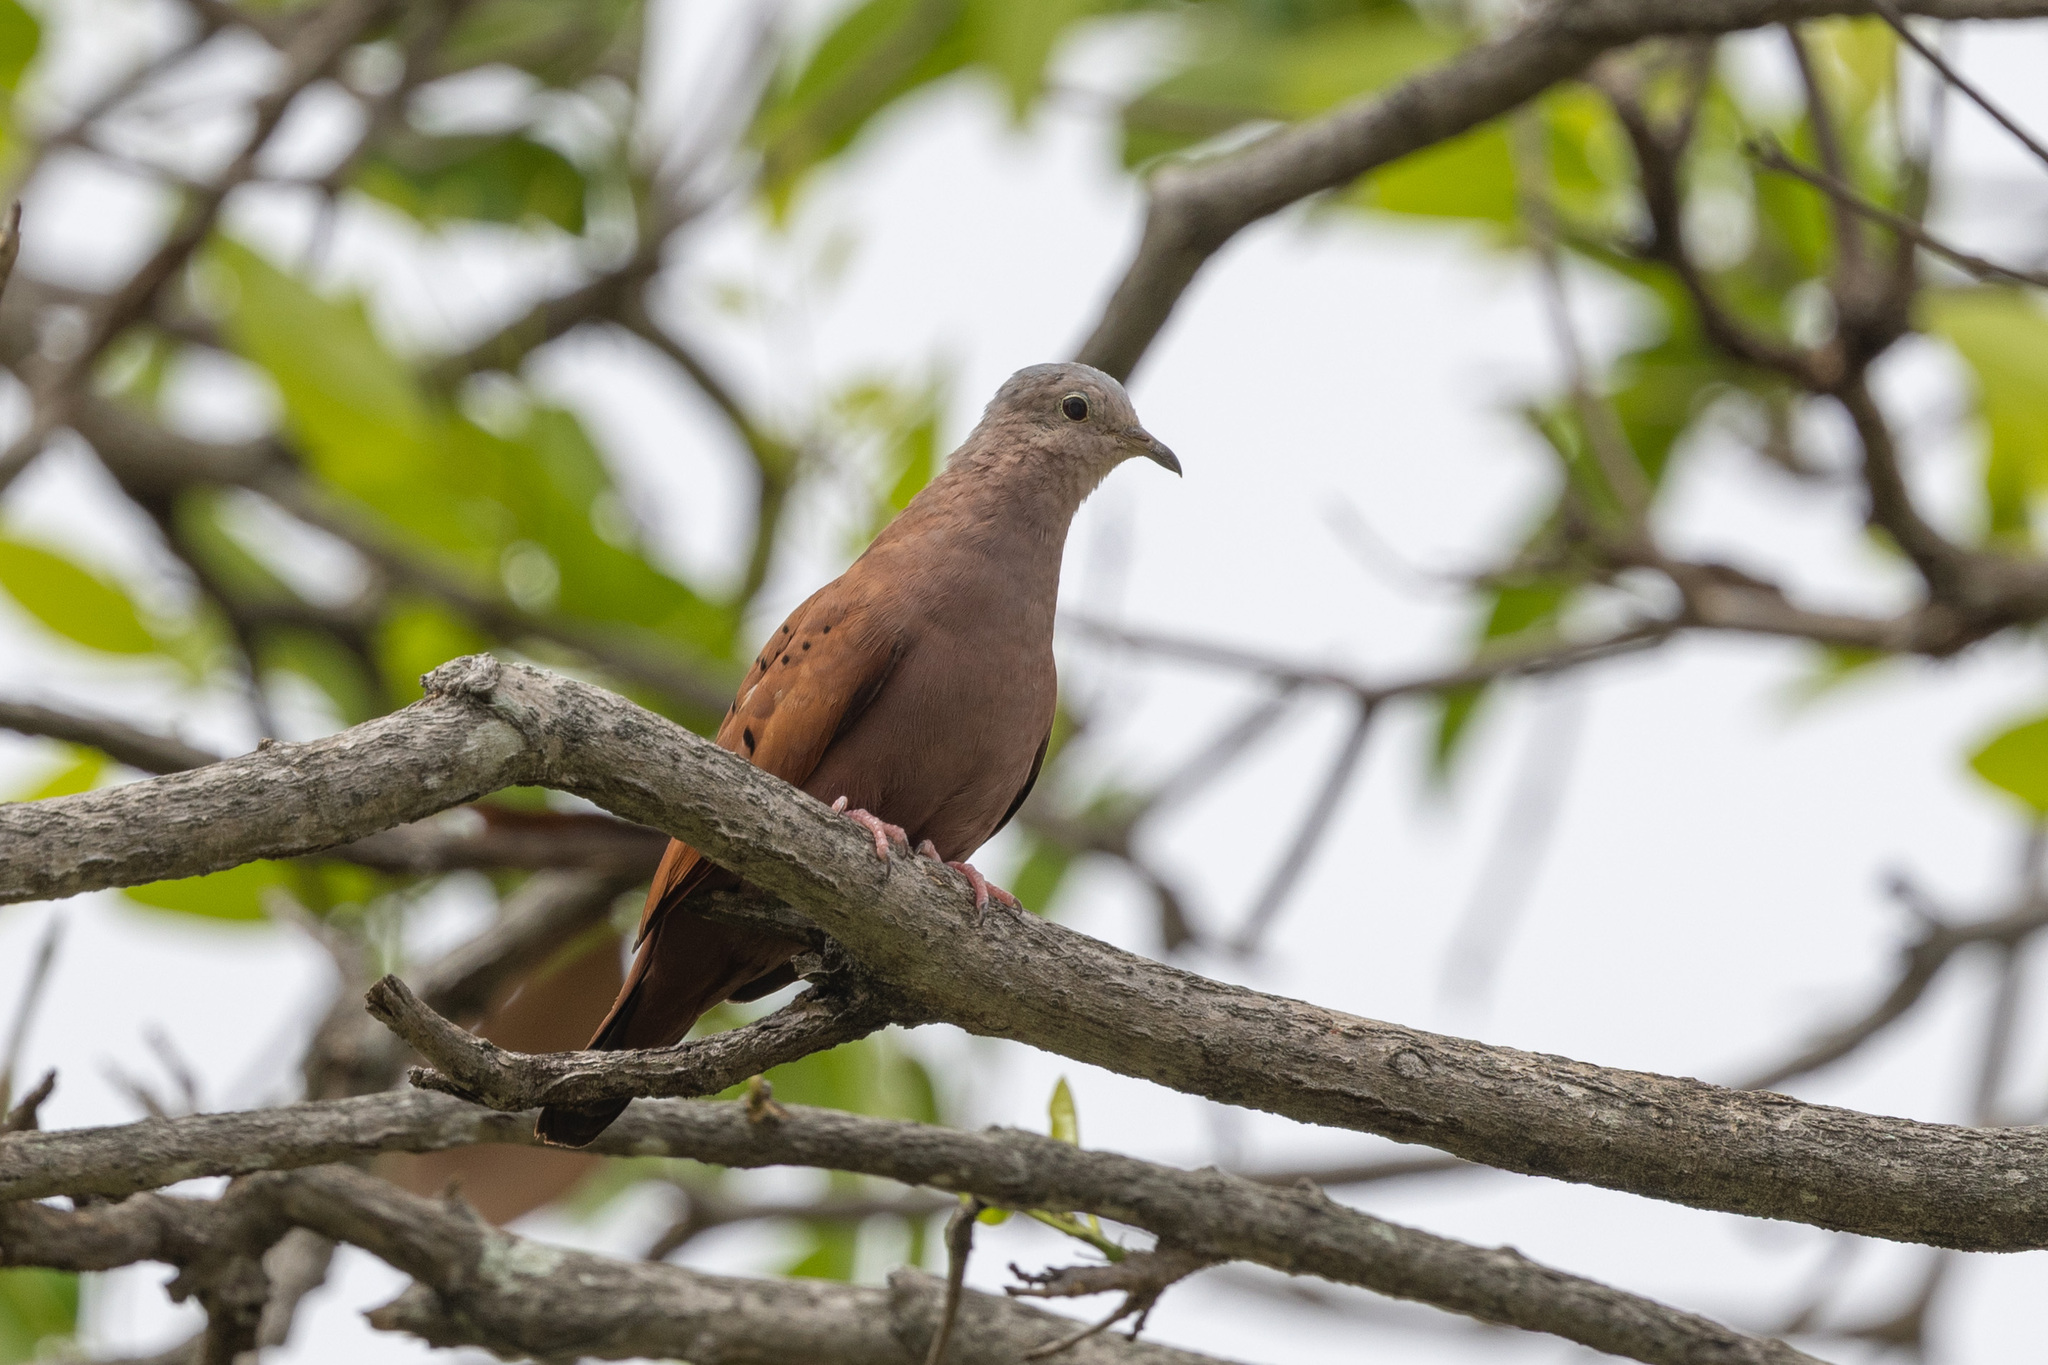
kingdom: Animalia
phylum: Chordata
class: Aves
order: Columbiformes
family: Columbidae
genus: Columbina
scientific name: Columbina talpacoti
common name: Ruddy ground dove
